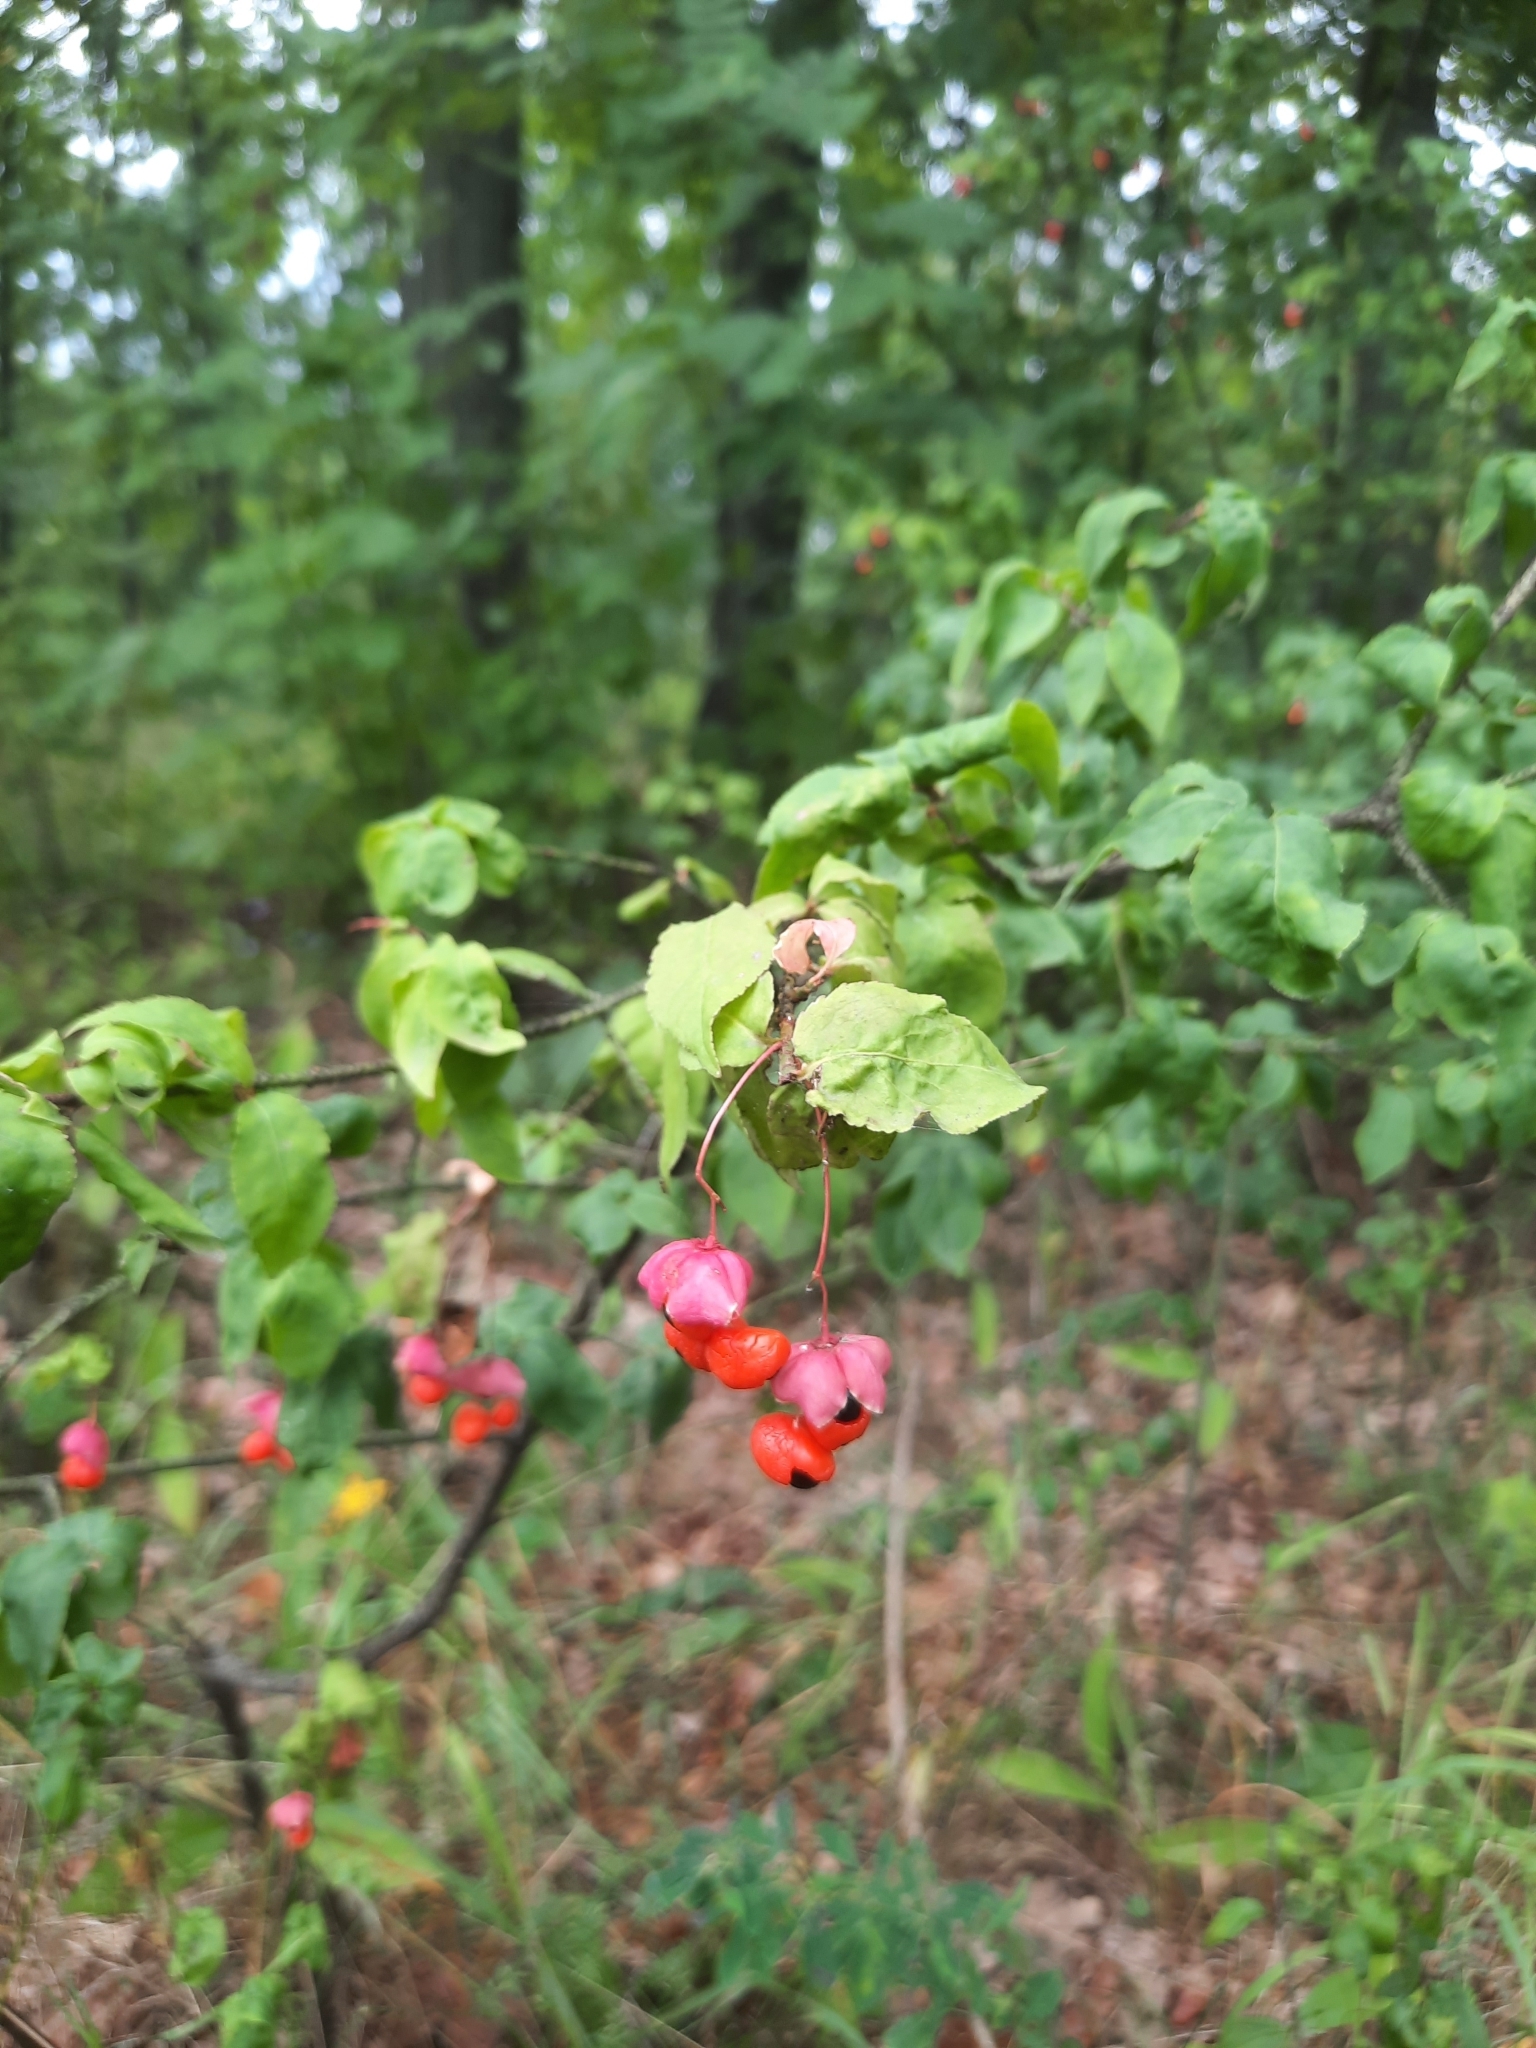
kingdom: Plantae
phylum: Tracheophyta
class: Magnoliopsida
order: Celastrales
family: Celastraceae
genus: Euonymus
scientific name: Euonymus verrucosus
